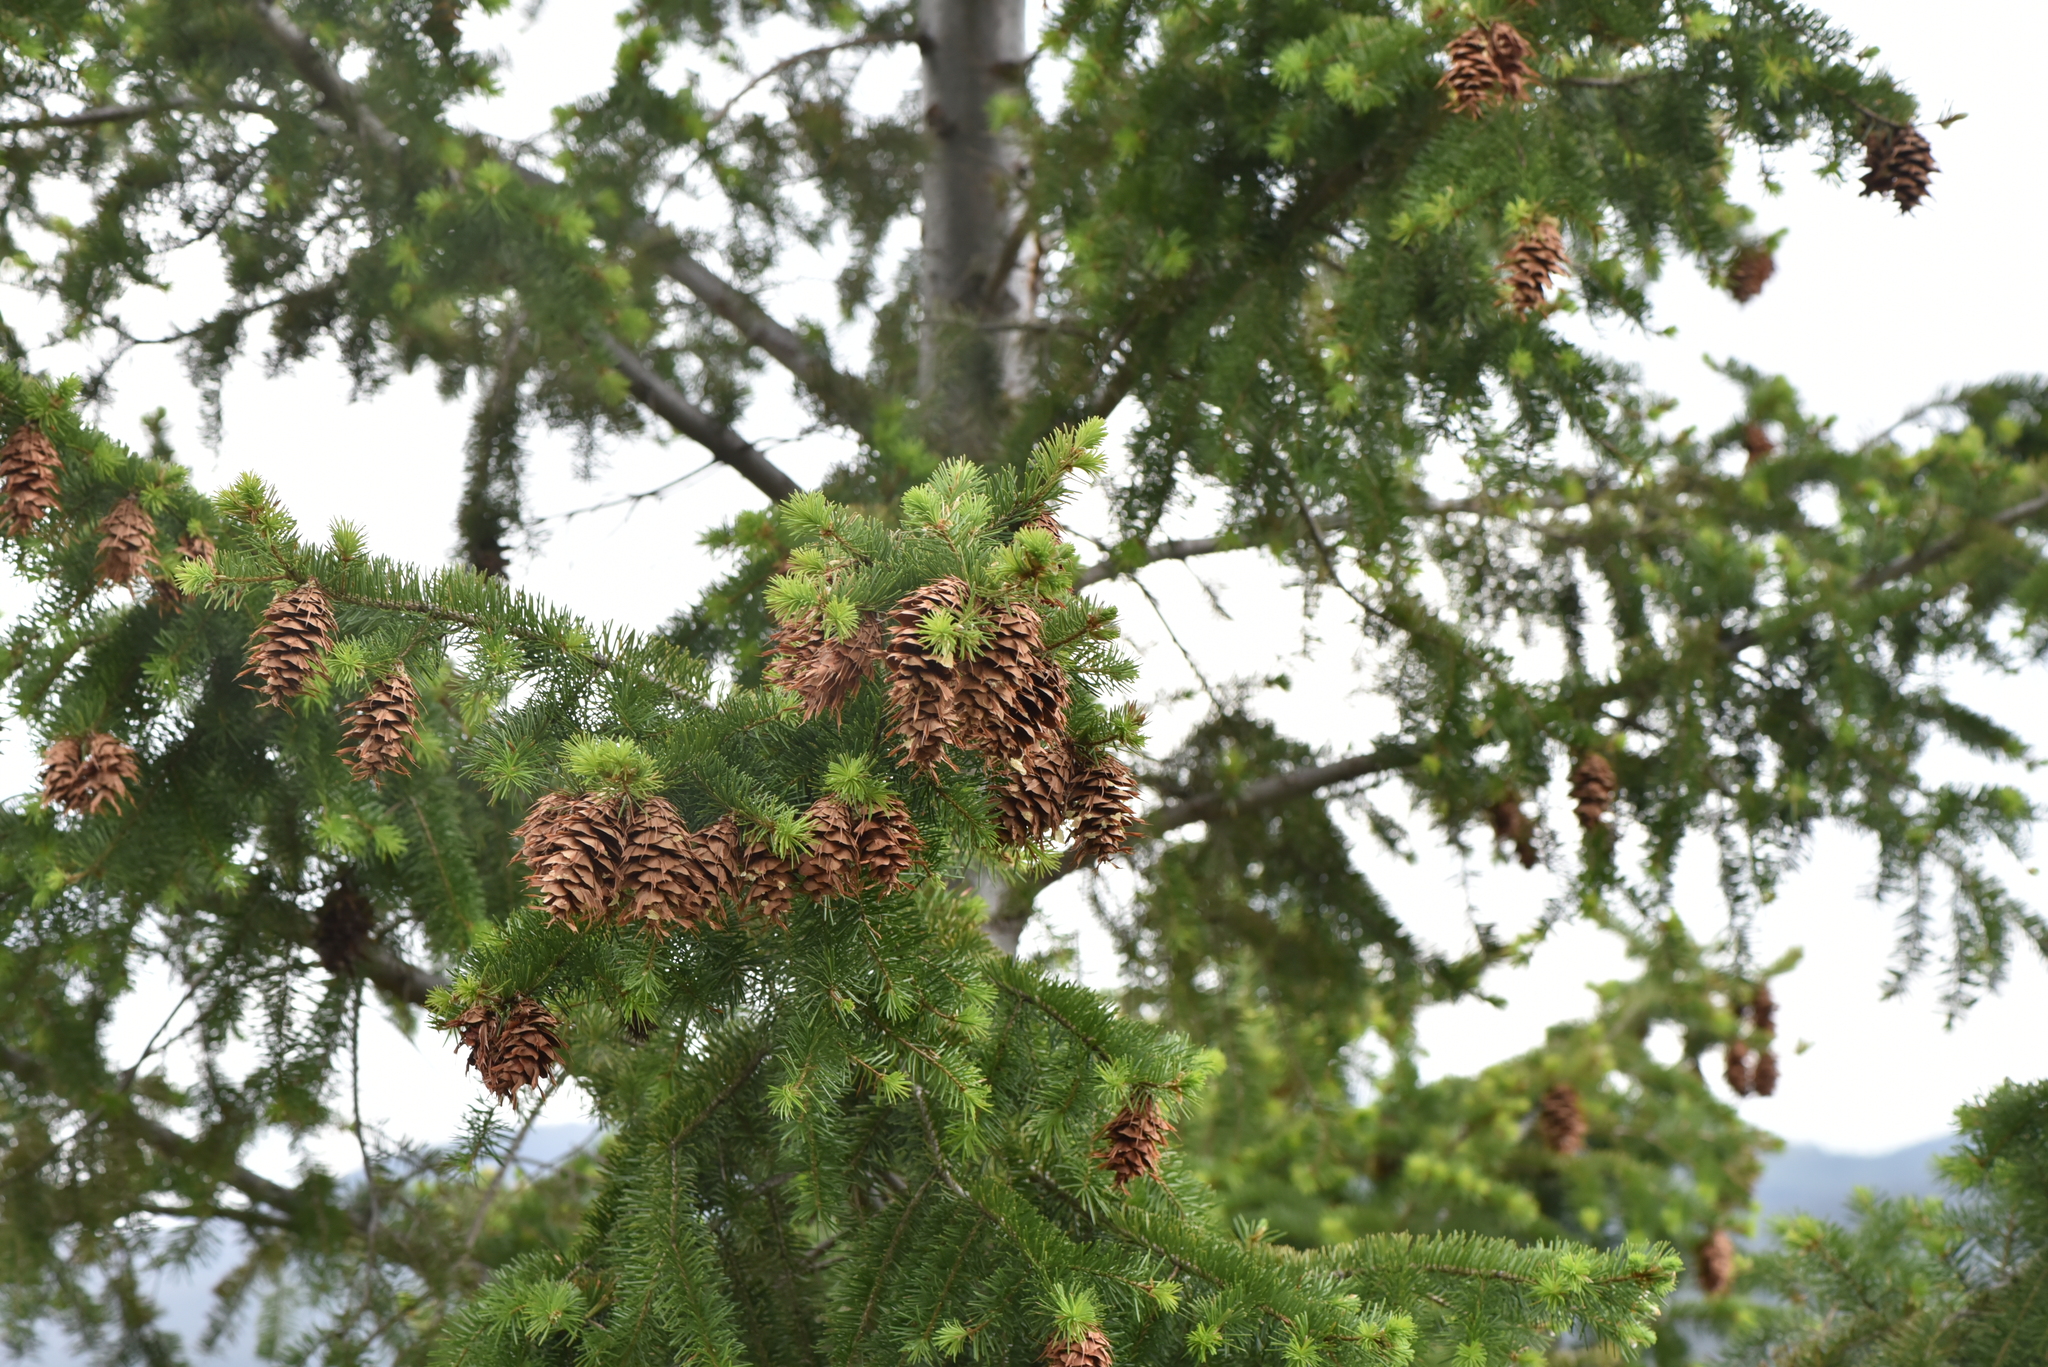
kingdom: Plantae
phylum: Tracheophyta
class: Pinopsida
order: Pinales
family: Pinaceae
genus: Pseudotsuga
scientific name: Pseudotsuga menziesii
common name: Douglas fir
